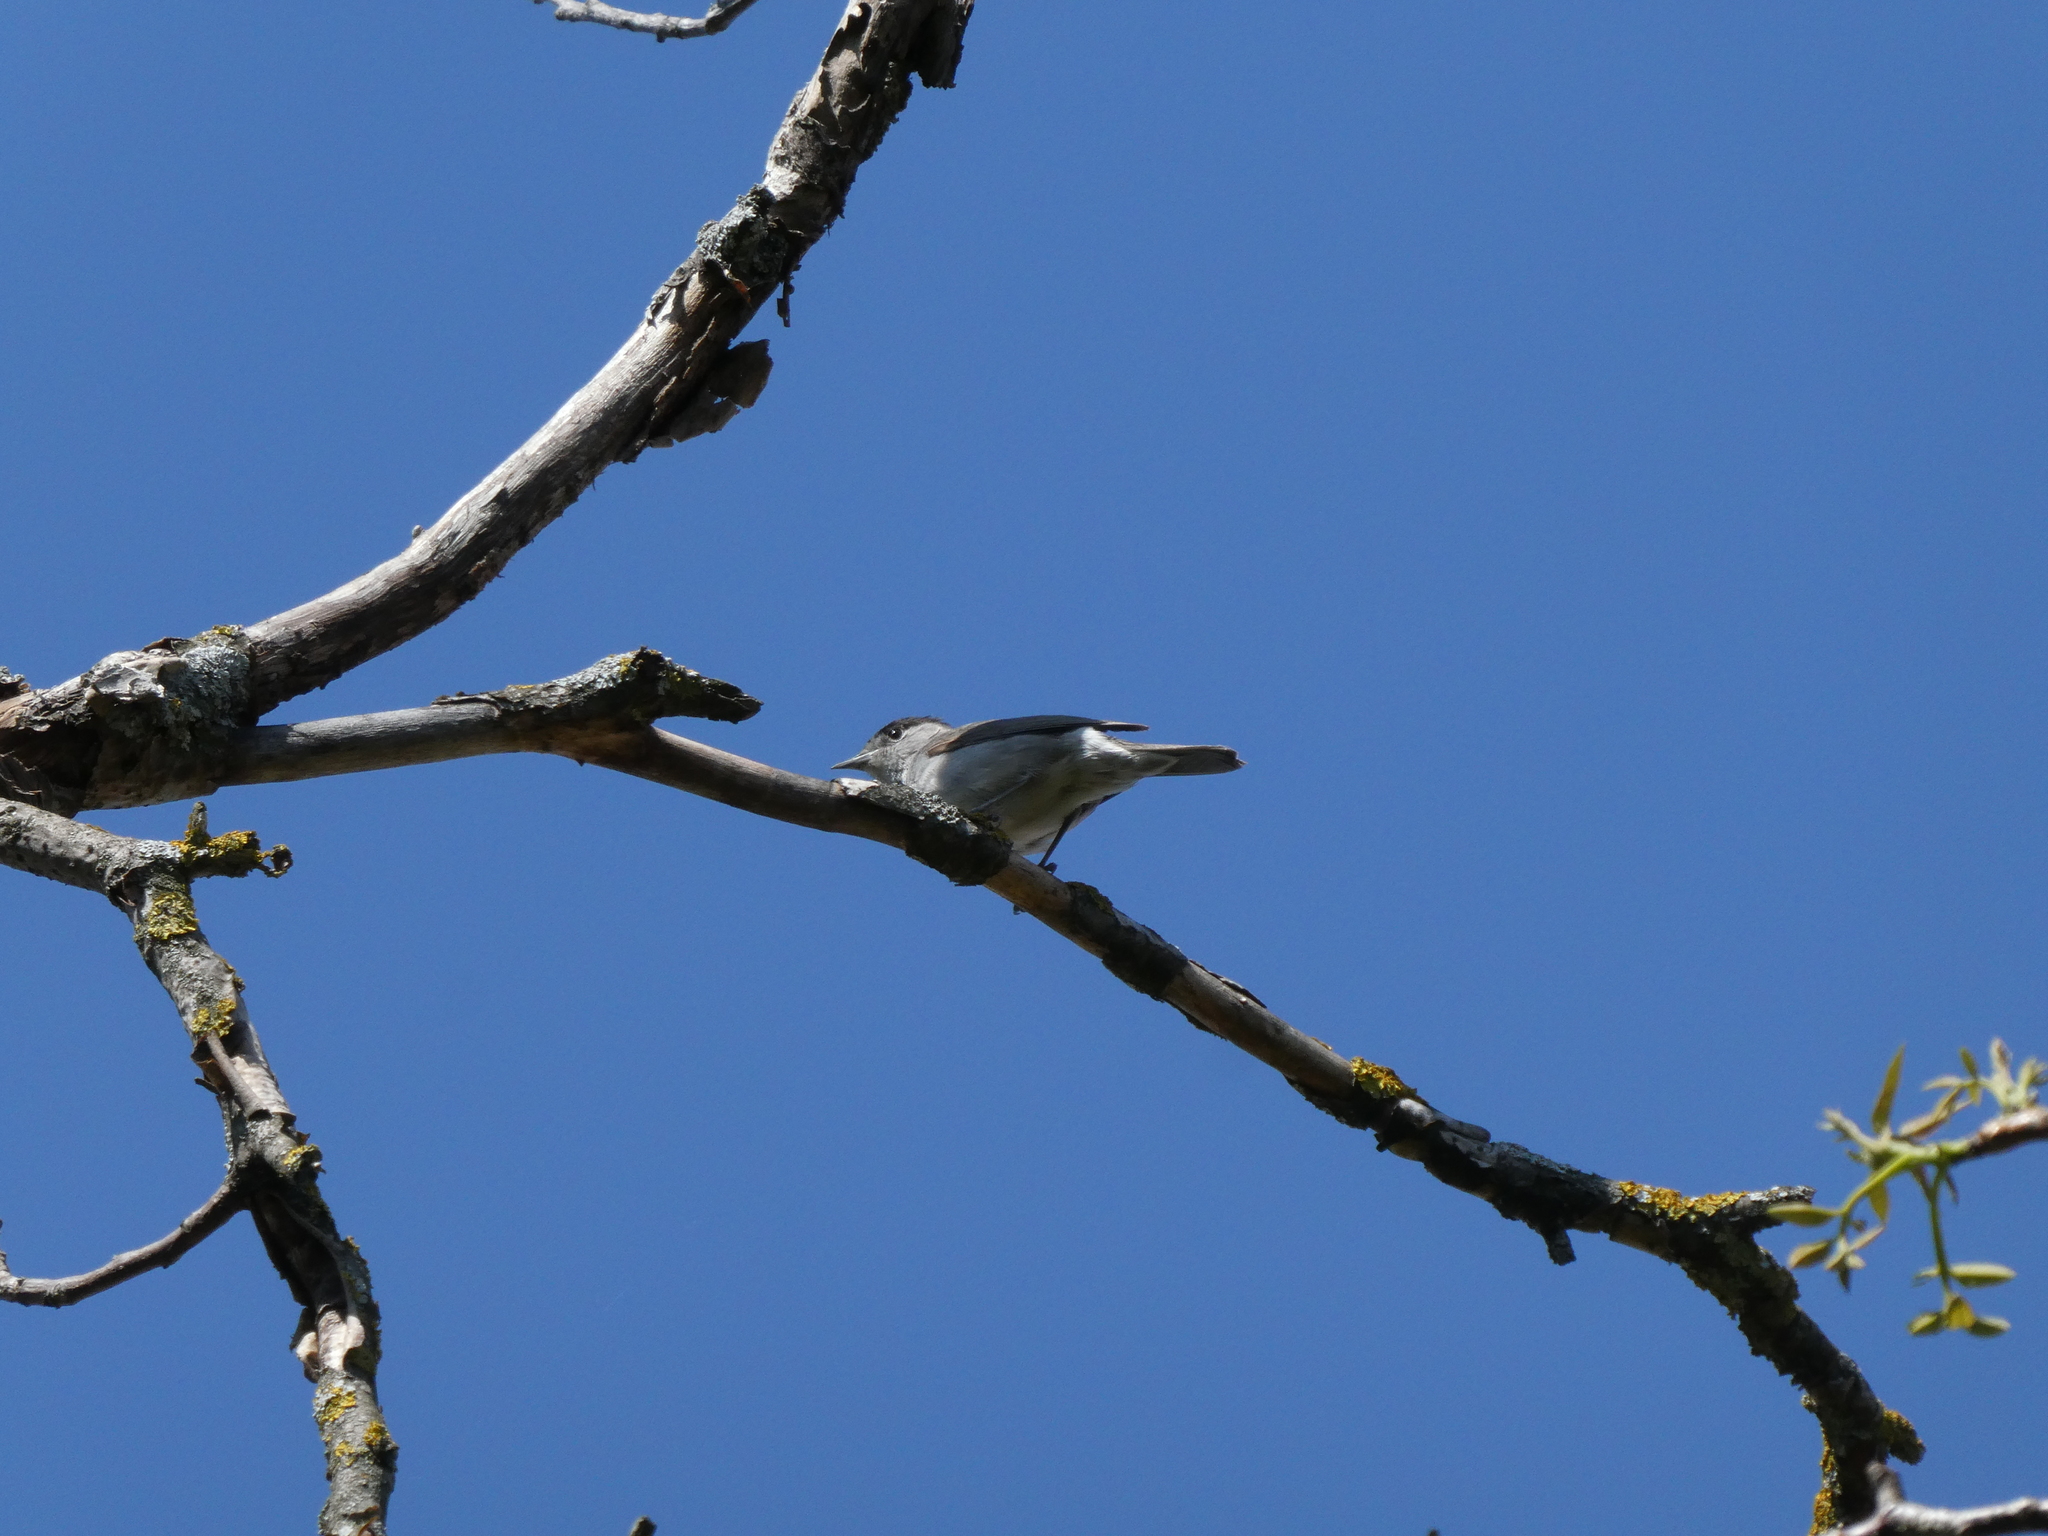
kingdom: Animalia
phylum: Chordata
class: Aves
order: Passeriformes
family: Sylviidae
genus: Sylvia
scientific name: Sylvia atricapilla
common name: Eurasian blackcap
